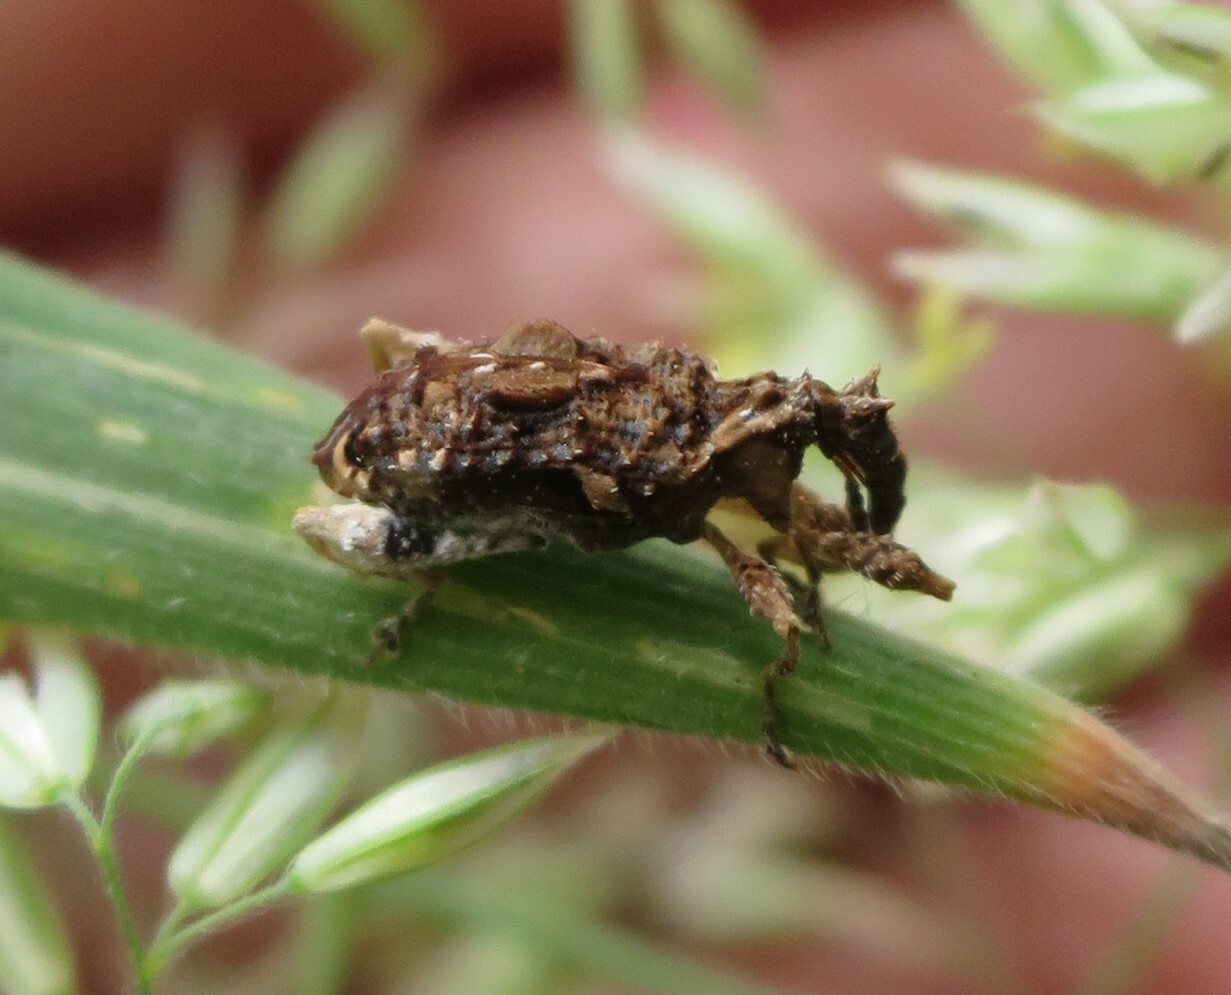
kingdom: Animalia
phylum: Arthropoda
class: Insecta
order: Coleoptera
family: Curculionidae
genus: Stephanorhynchus
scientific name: Stephanorhynchus curvipes
